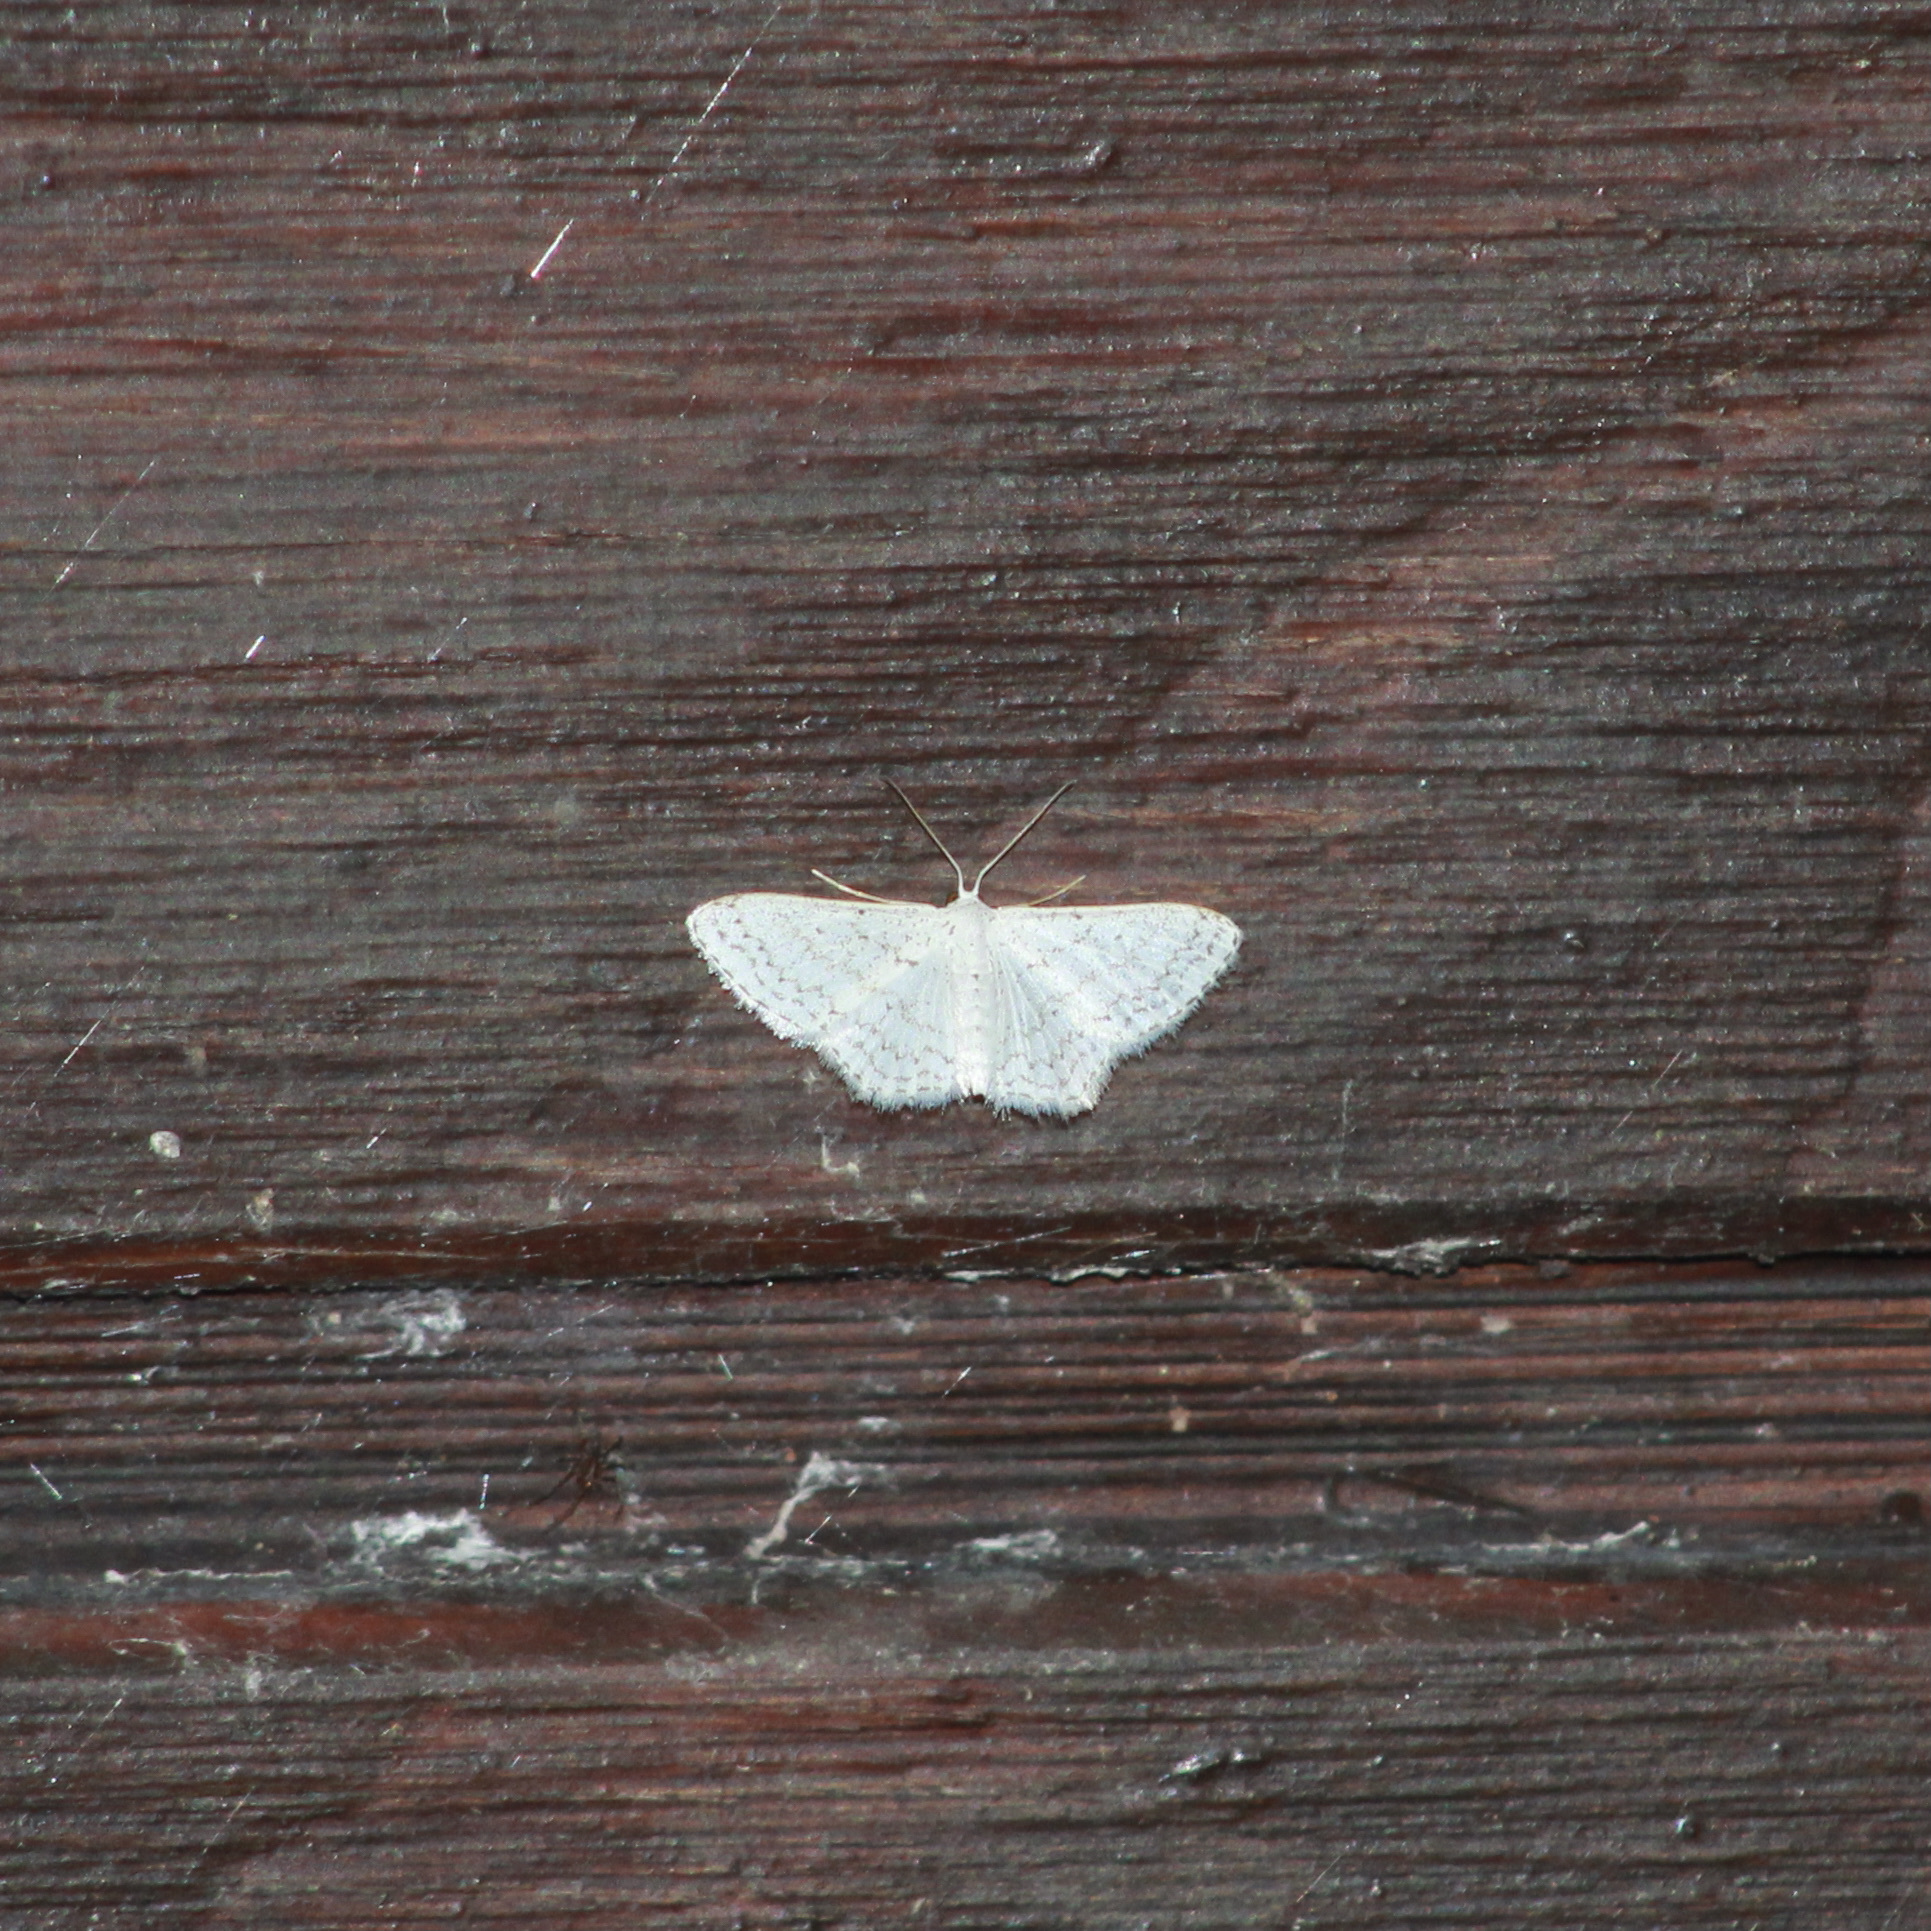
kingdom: Animalia
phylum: Arthropoda
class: Insecta
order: Lepidoptera
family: Geometridae
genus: Idaea
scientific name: Idaea tacturata
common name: Dot-lined wave
